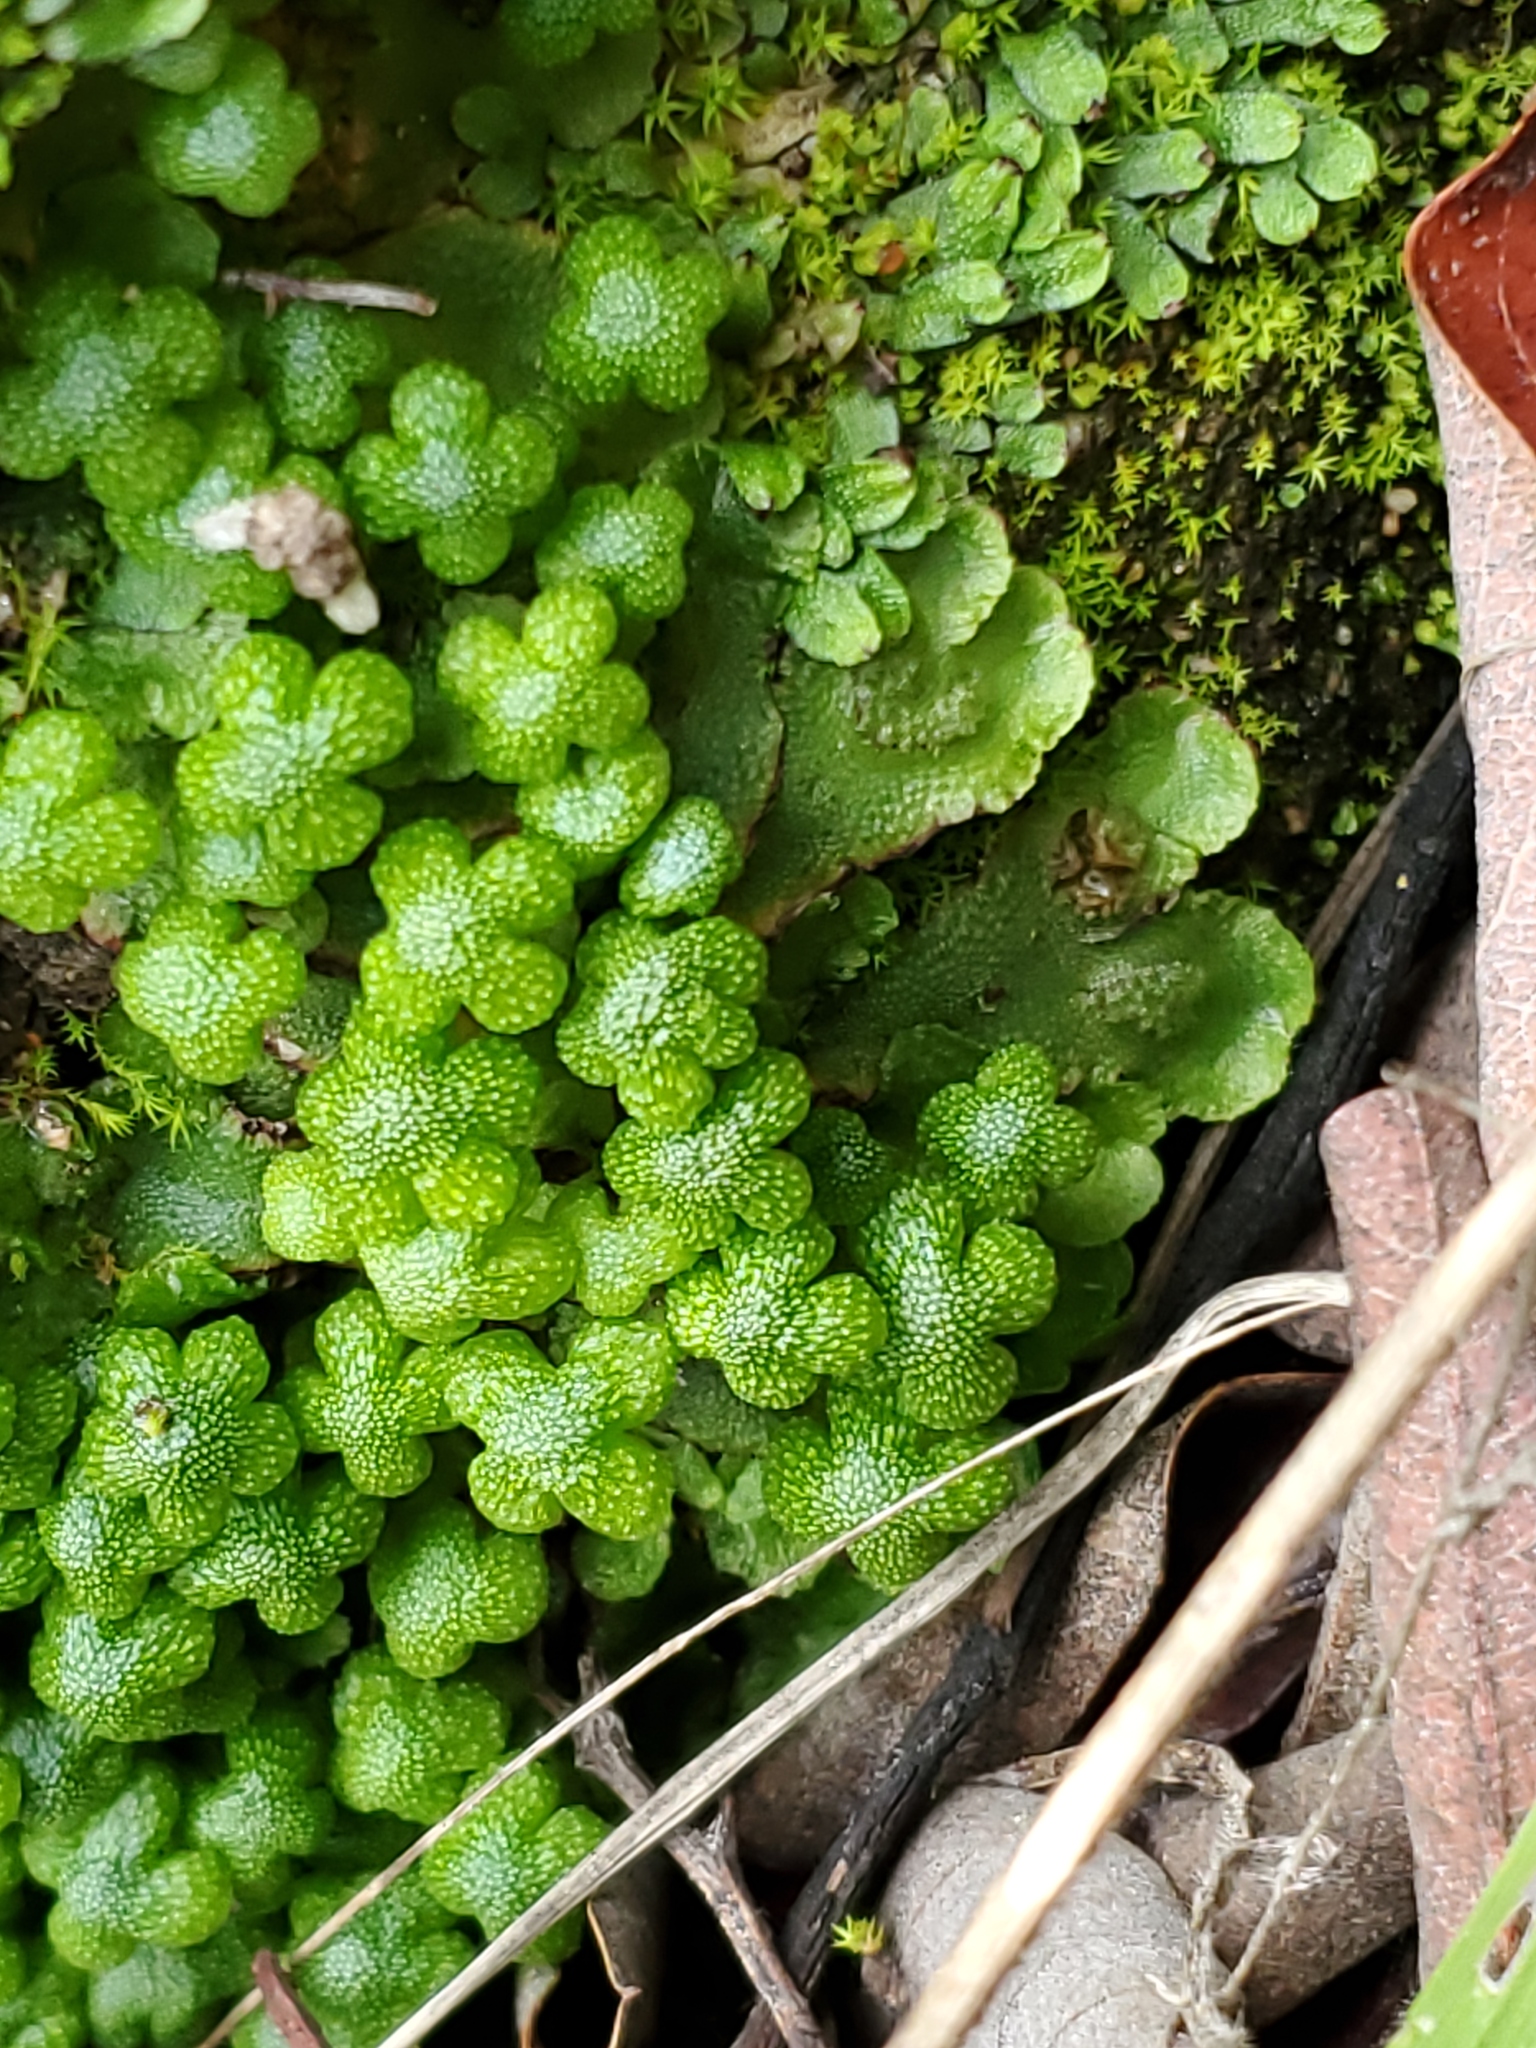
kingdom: Plantae
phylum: Marchantiophyta
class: Marchantiopsida
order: Marchantiales
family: Aytoniaceae
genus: Asterella
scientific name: Asterella californica
